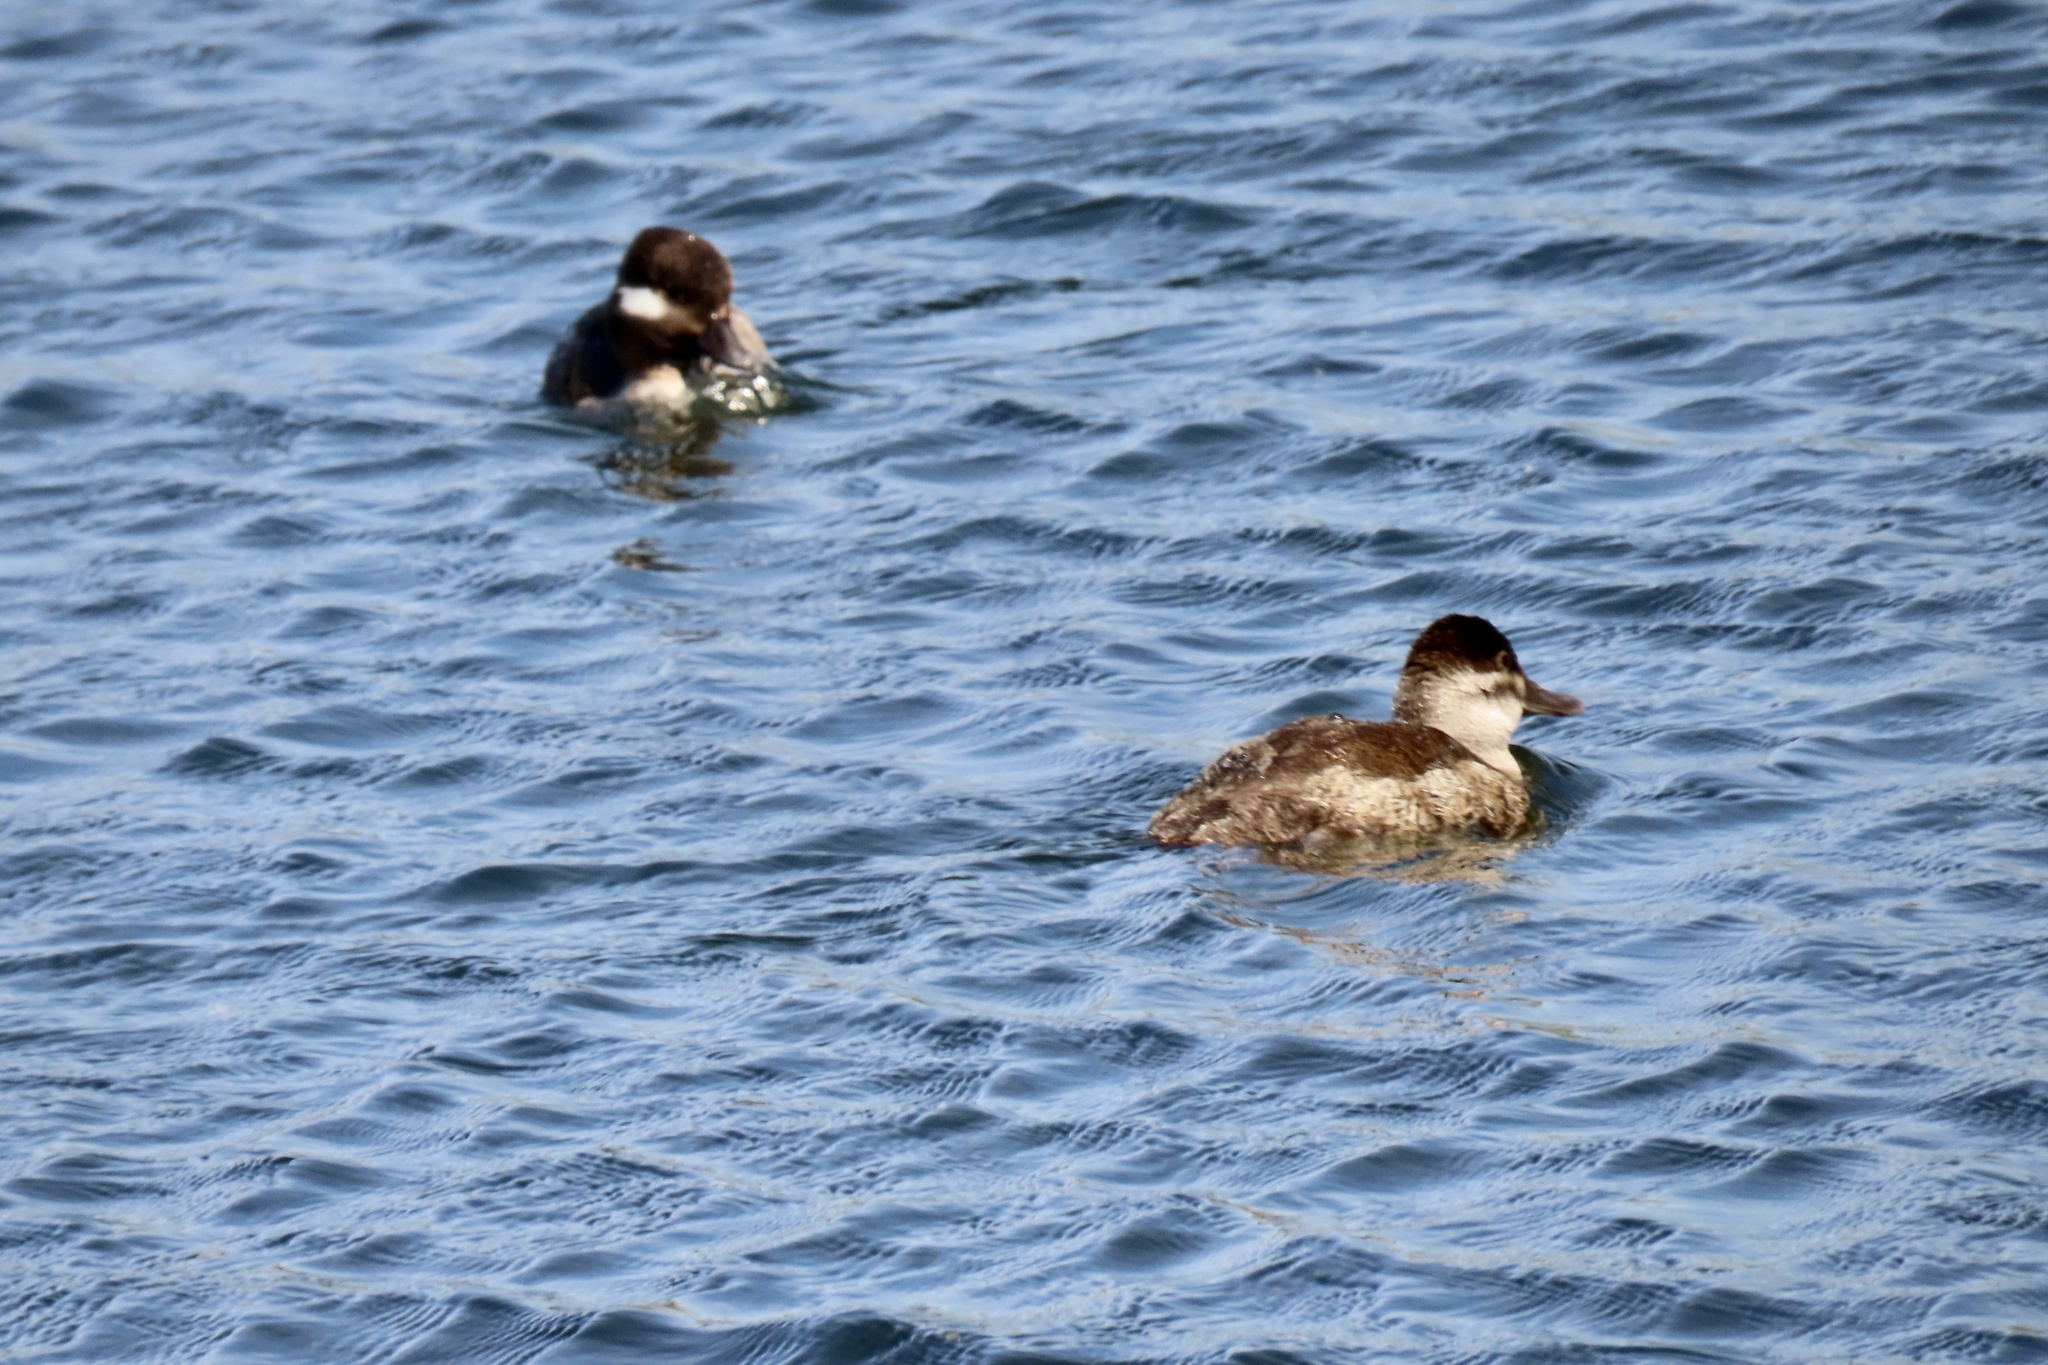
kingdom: Animalia
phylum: Chordata
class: Aves
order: Anseriformes
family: Anatidae
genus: Oxyura
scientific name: Oxyura jamaicensis
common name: Ruddy duck
